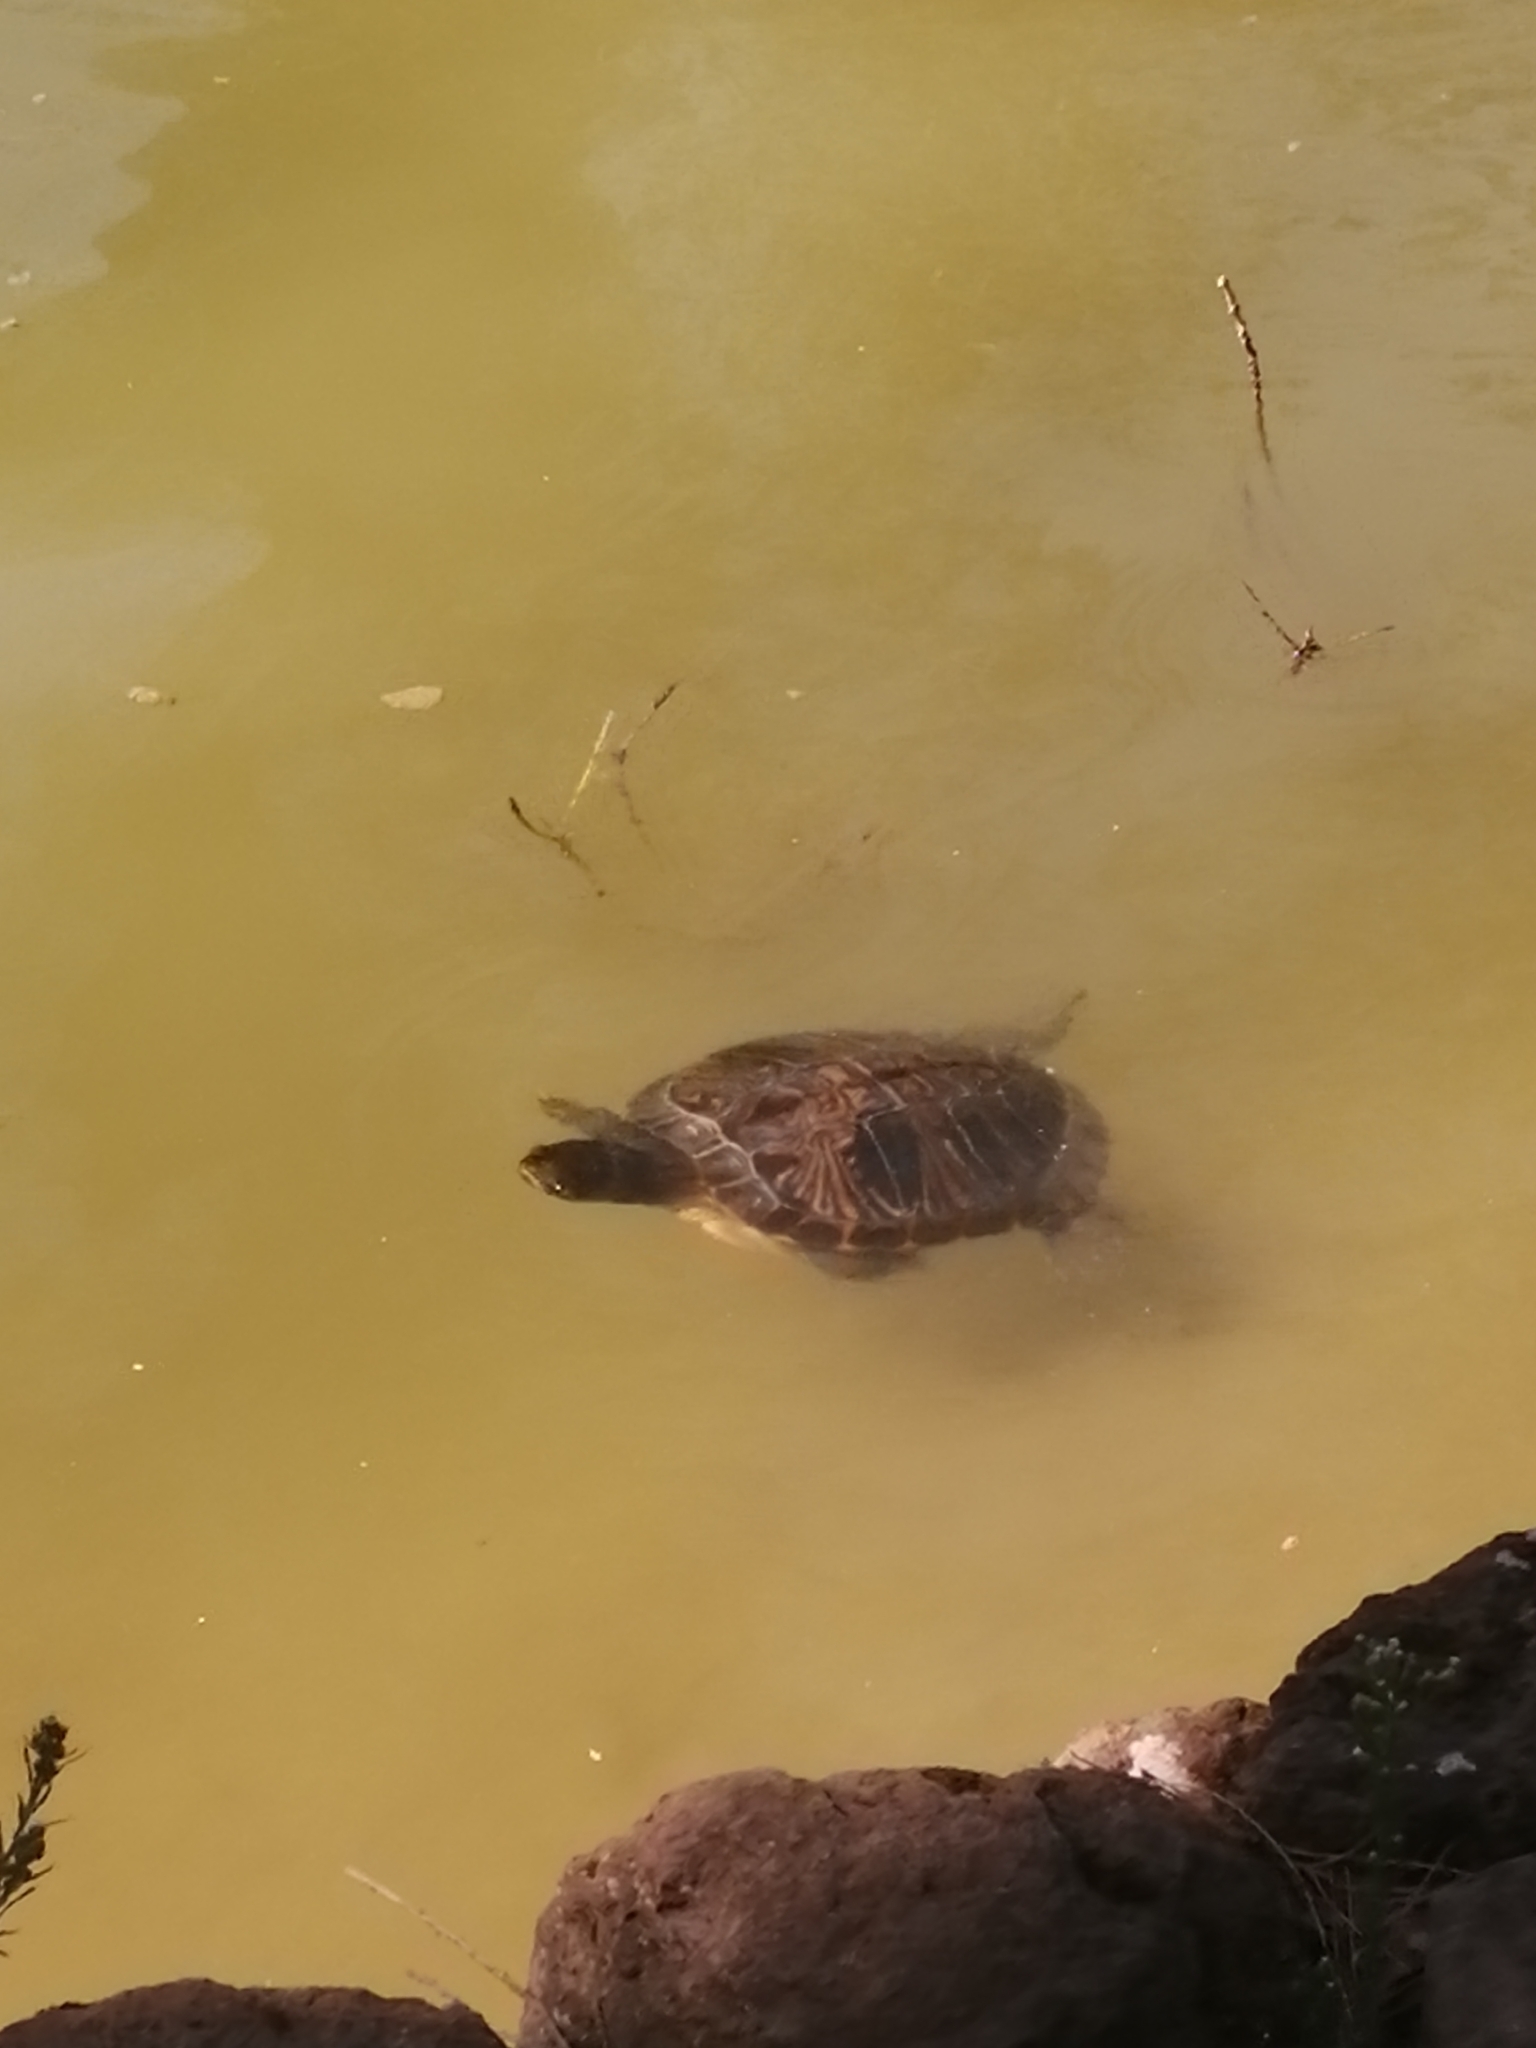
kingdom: Animalia
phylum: Chordata
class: Testudines
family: Emydidae
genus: Trachemys
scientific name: Trachemys scripta
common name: Slider
